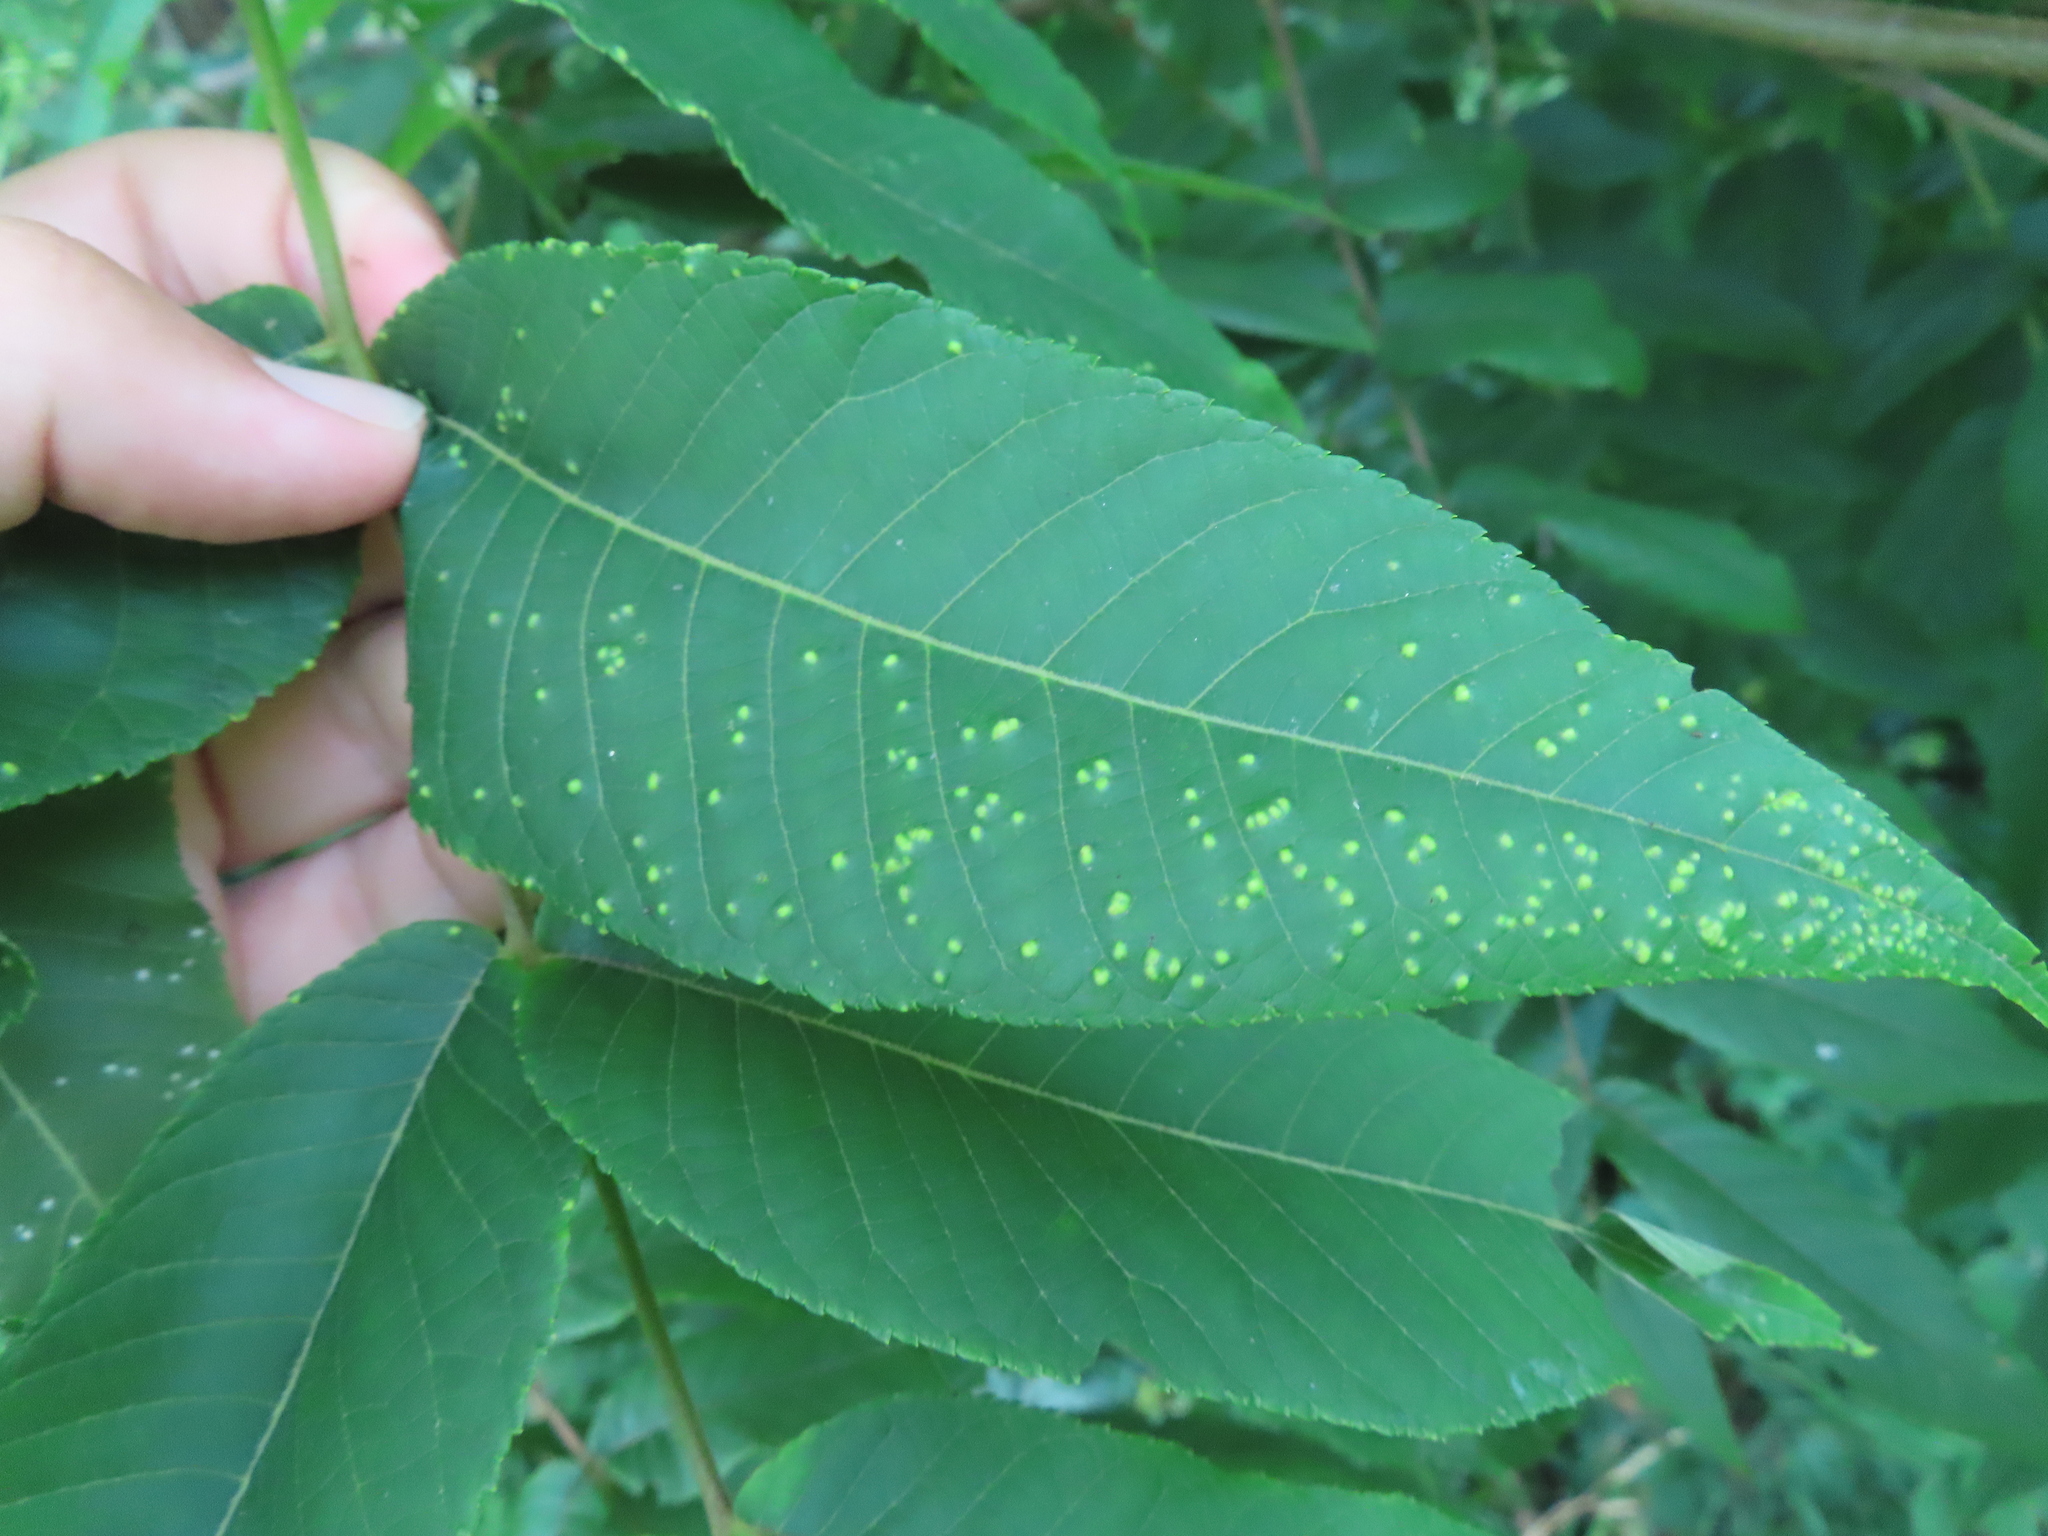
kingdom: Fungi
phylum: Basidiomycota
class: Exobasidiomycetes
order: Microstromatales
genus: Pseudomicrostroma
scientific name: Pseudomicrostroma juglandis
